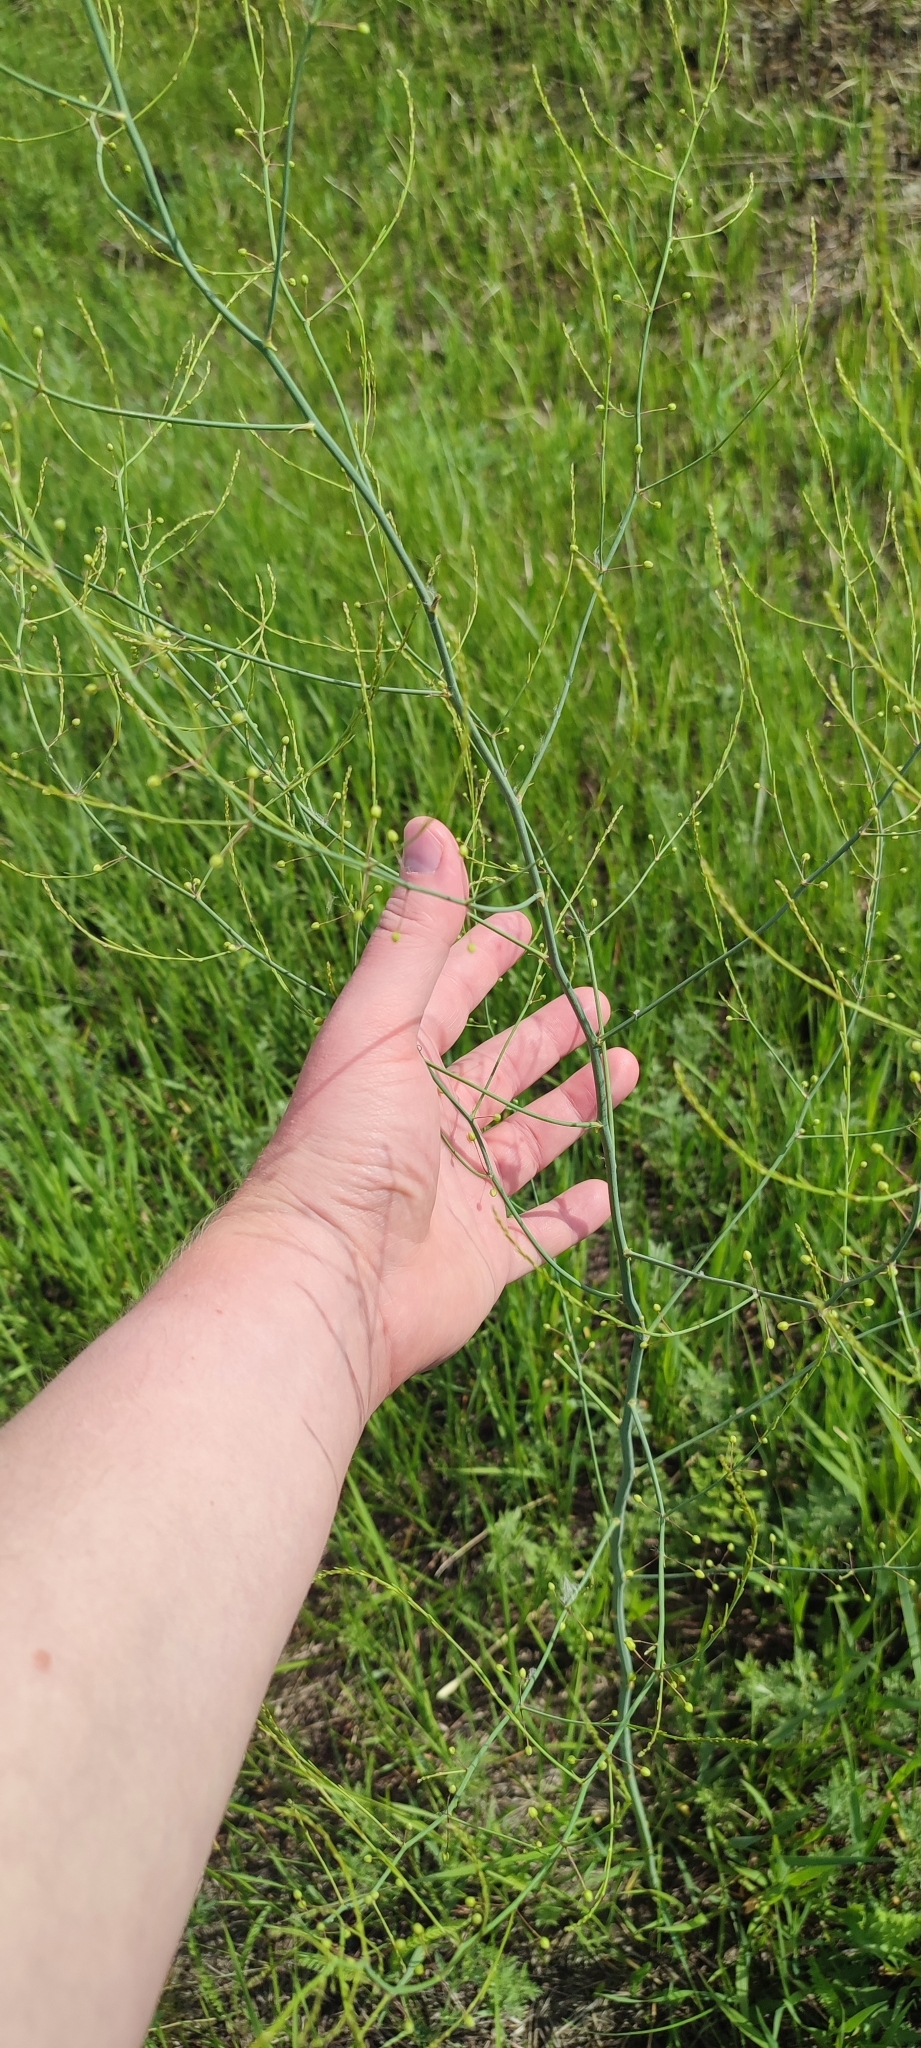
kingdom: Plantae
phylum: Tracheophyta
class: Liliopsida
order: Asparagales
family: Asparagaceae
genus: Asparagus
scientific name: Asparagus officinalis
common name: Garden asparagus
